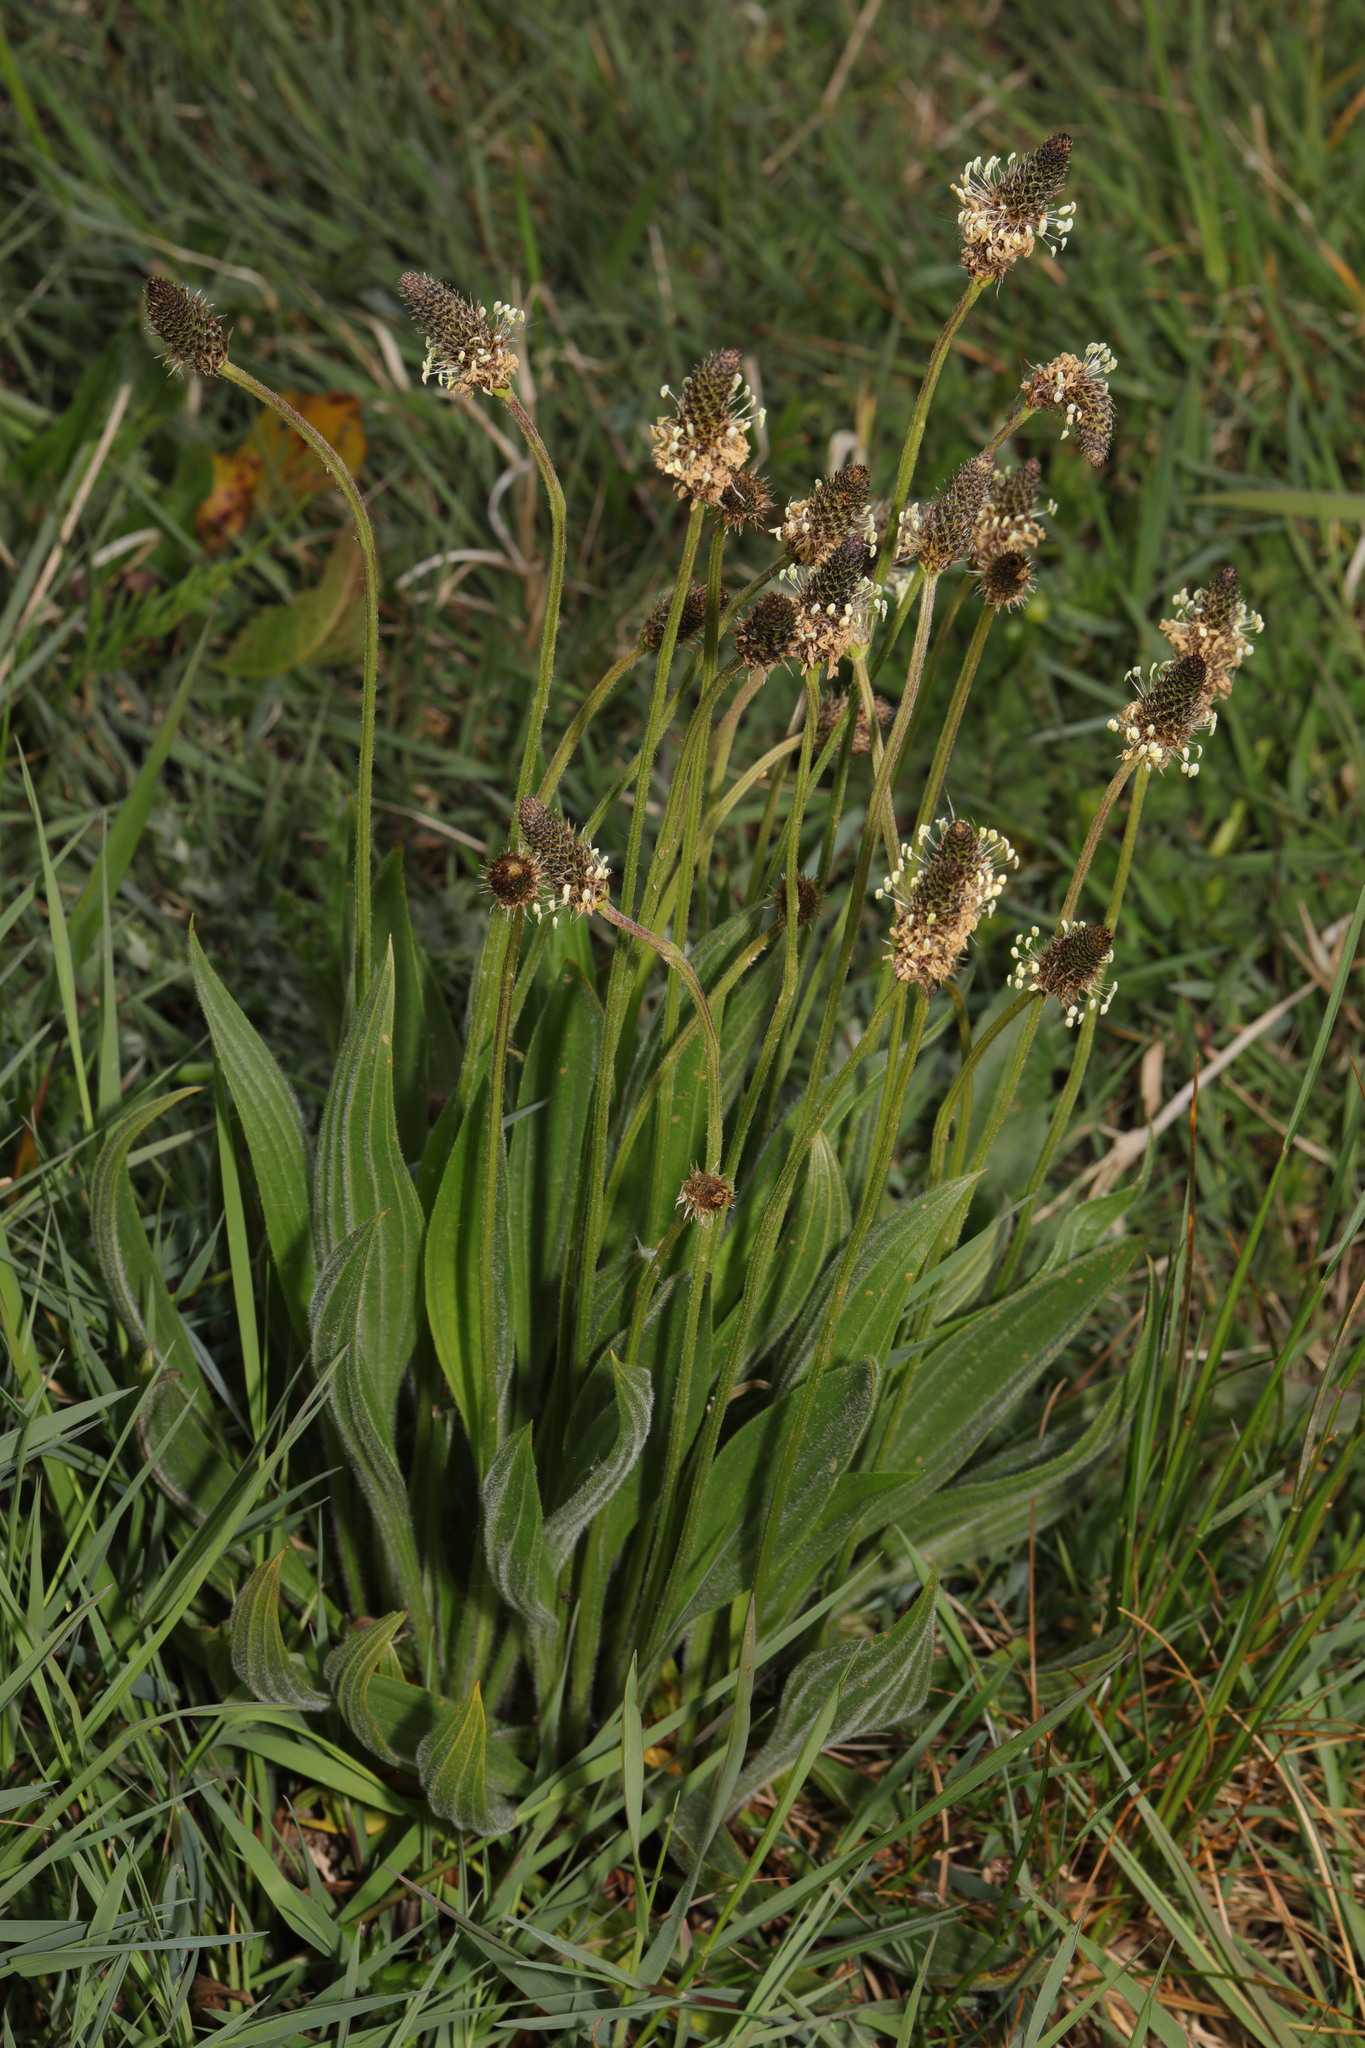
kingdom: Plantae
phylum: Tracheophyta
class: Magnoliopsida
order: Lamiales
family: Plantaginaceae
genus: Plantago
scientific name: Plantago lanceolata
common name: Ribwort plantain
